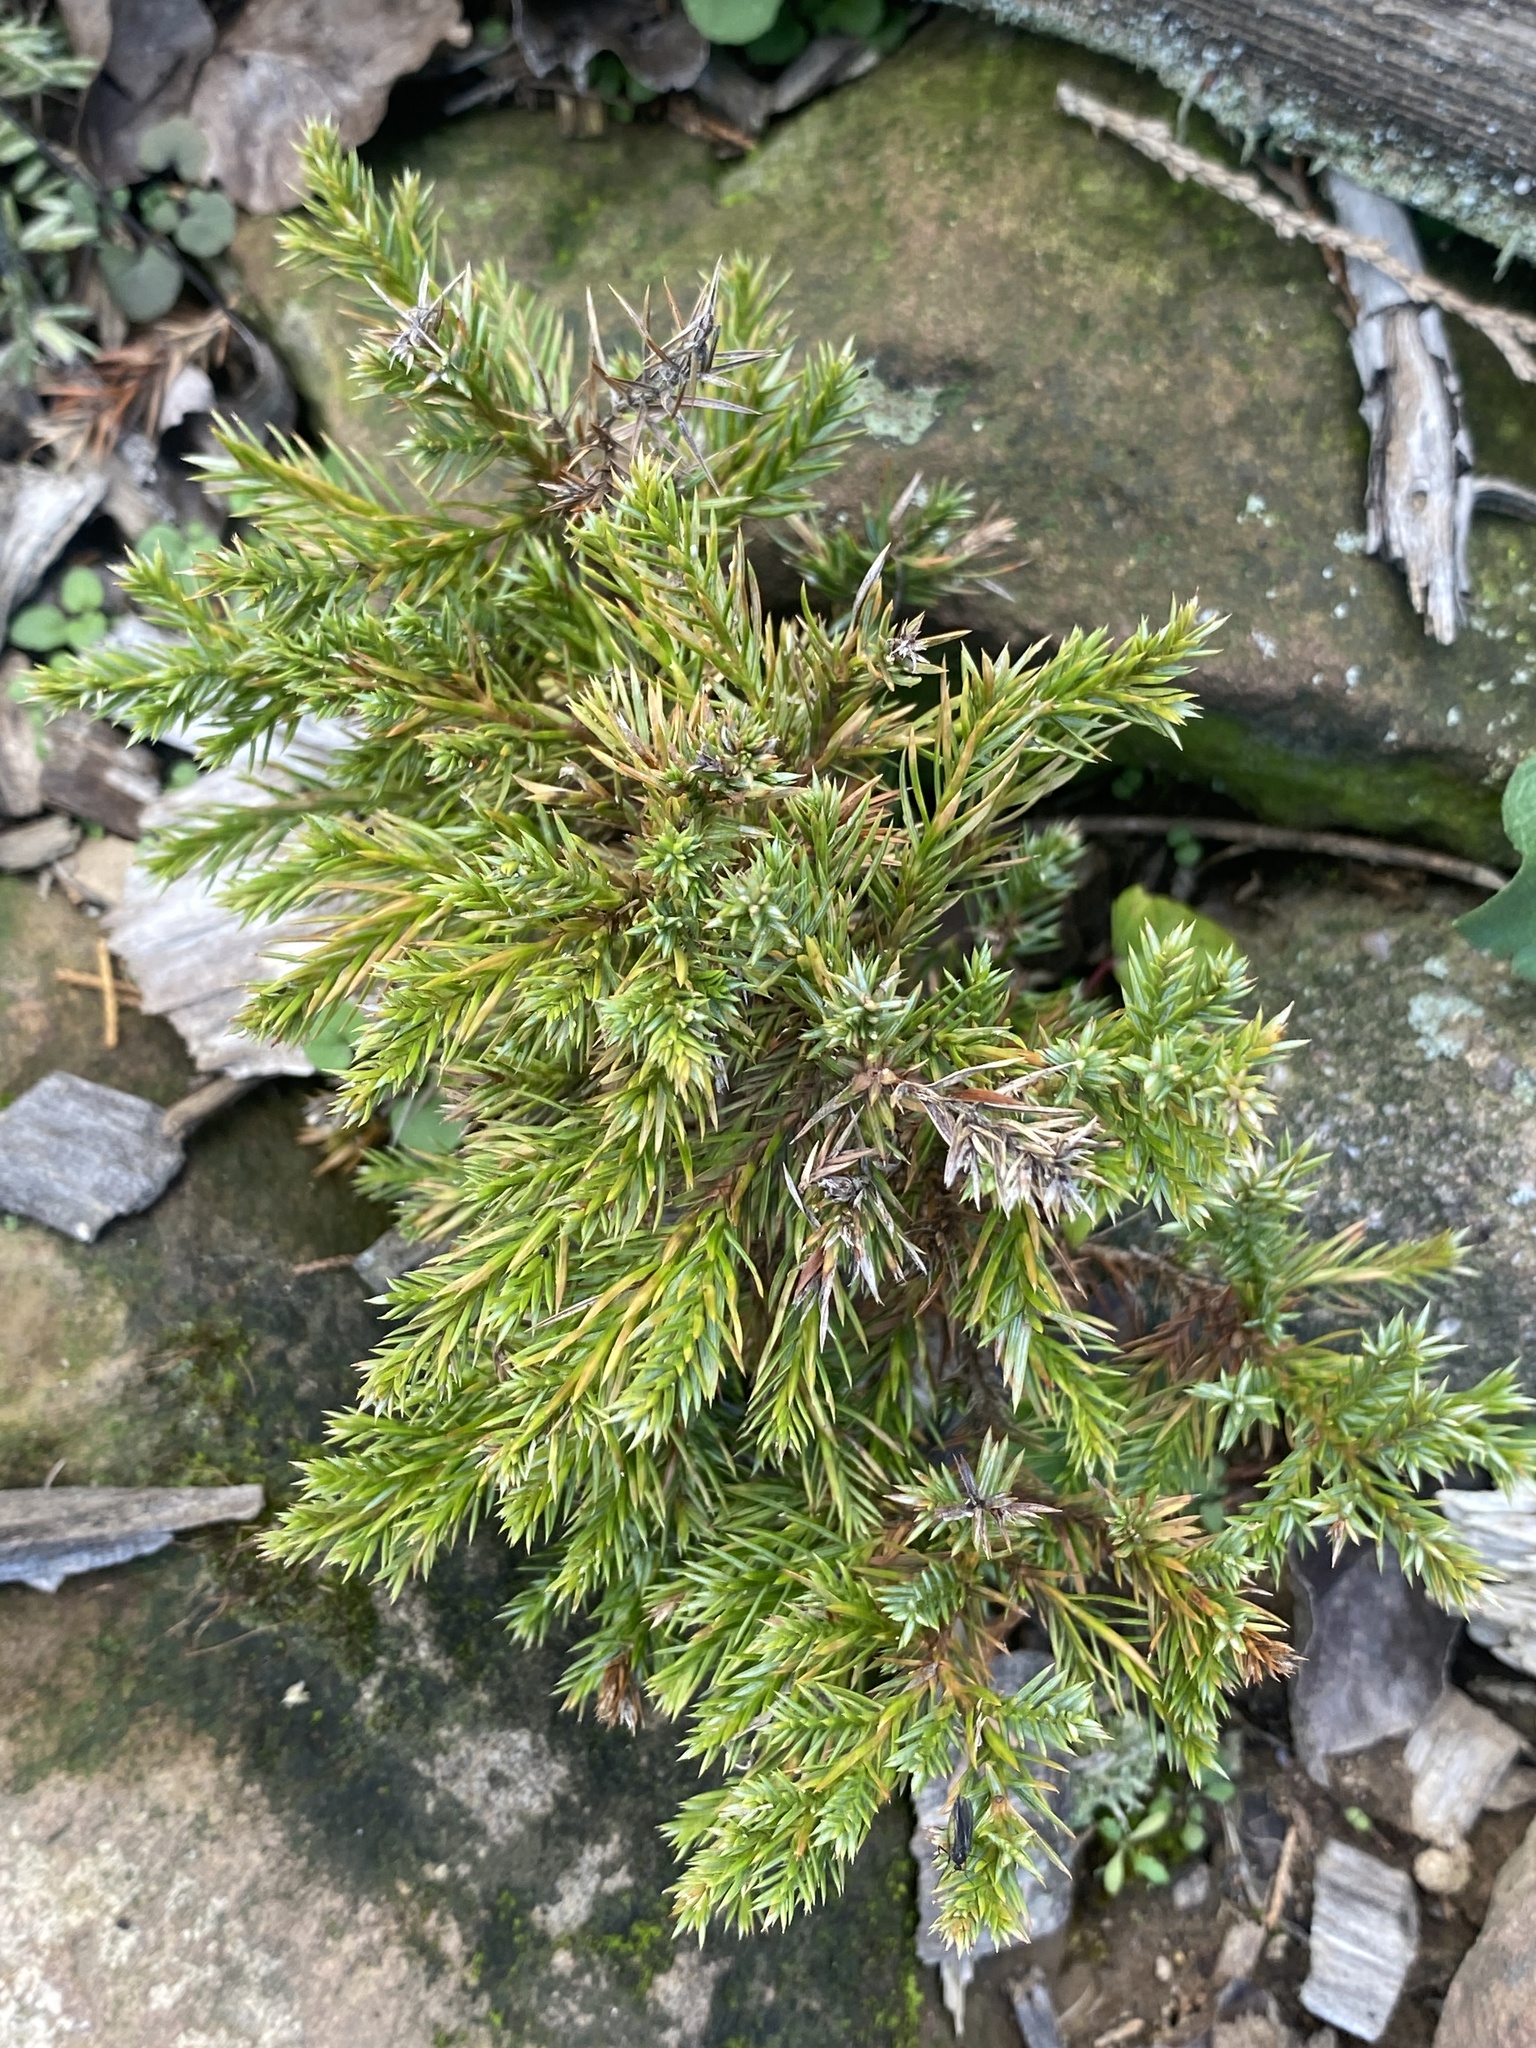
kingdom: Plantae
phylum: Tracheophyta
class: Pinopsida
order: Pinales
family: Cupressaceae
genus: Juniperus
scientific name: Juniperus virginiana
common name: Red juniper
